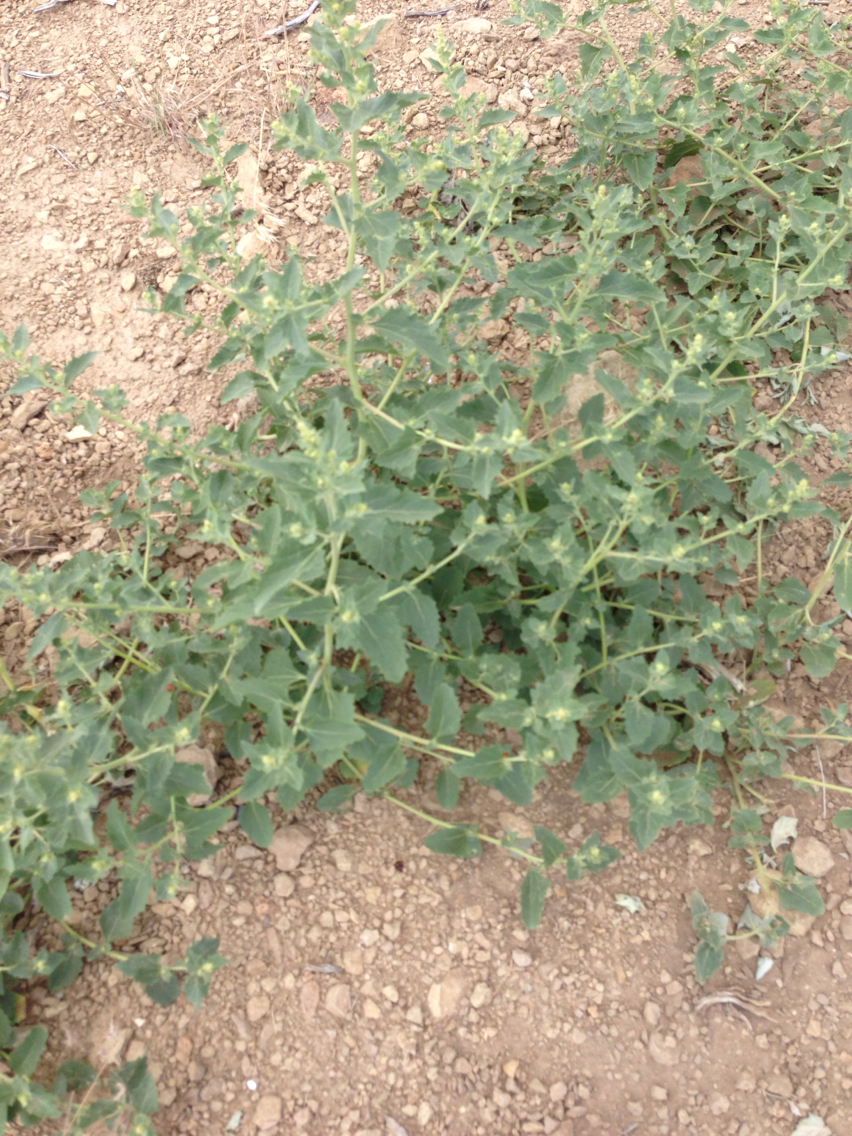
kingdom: Plantae
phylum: Tracheophyta
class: Magnoliopsida
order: Caryophyllales
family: Amaranthaceae
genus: Atriplex
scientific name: Atriplex rosea
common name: Tumbling saltweed
